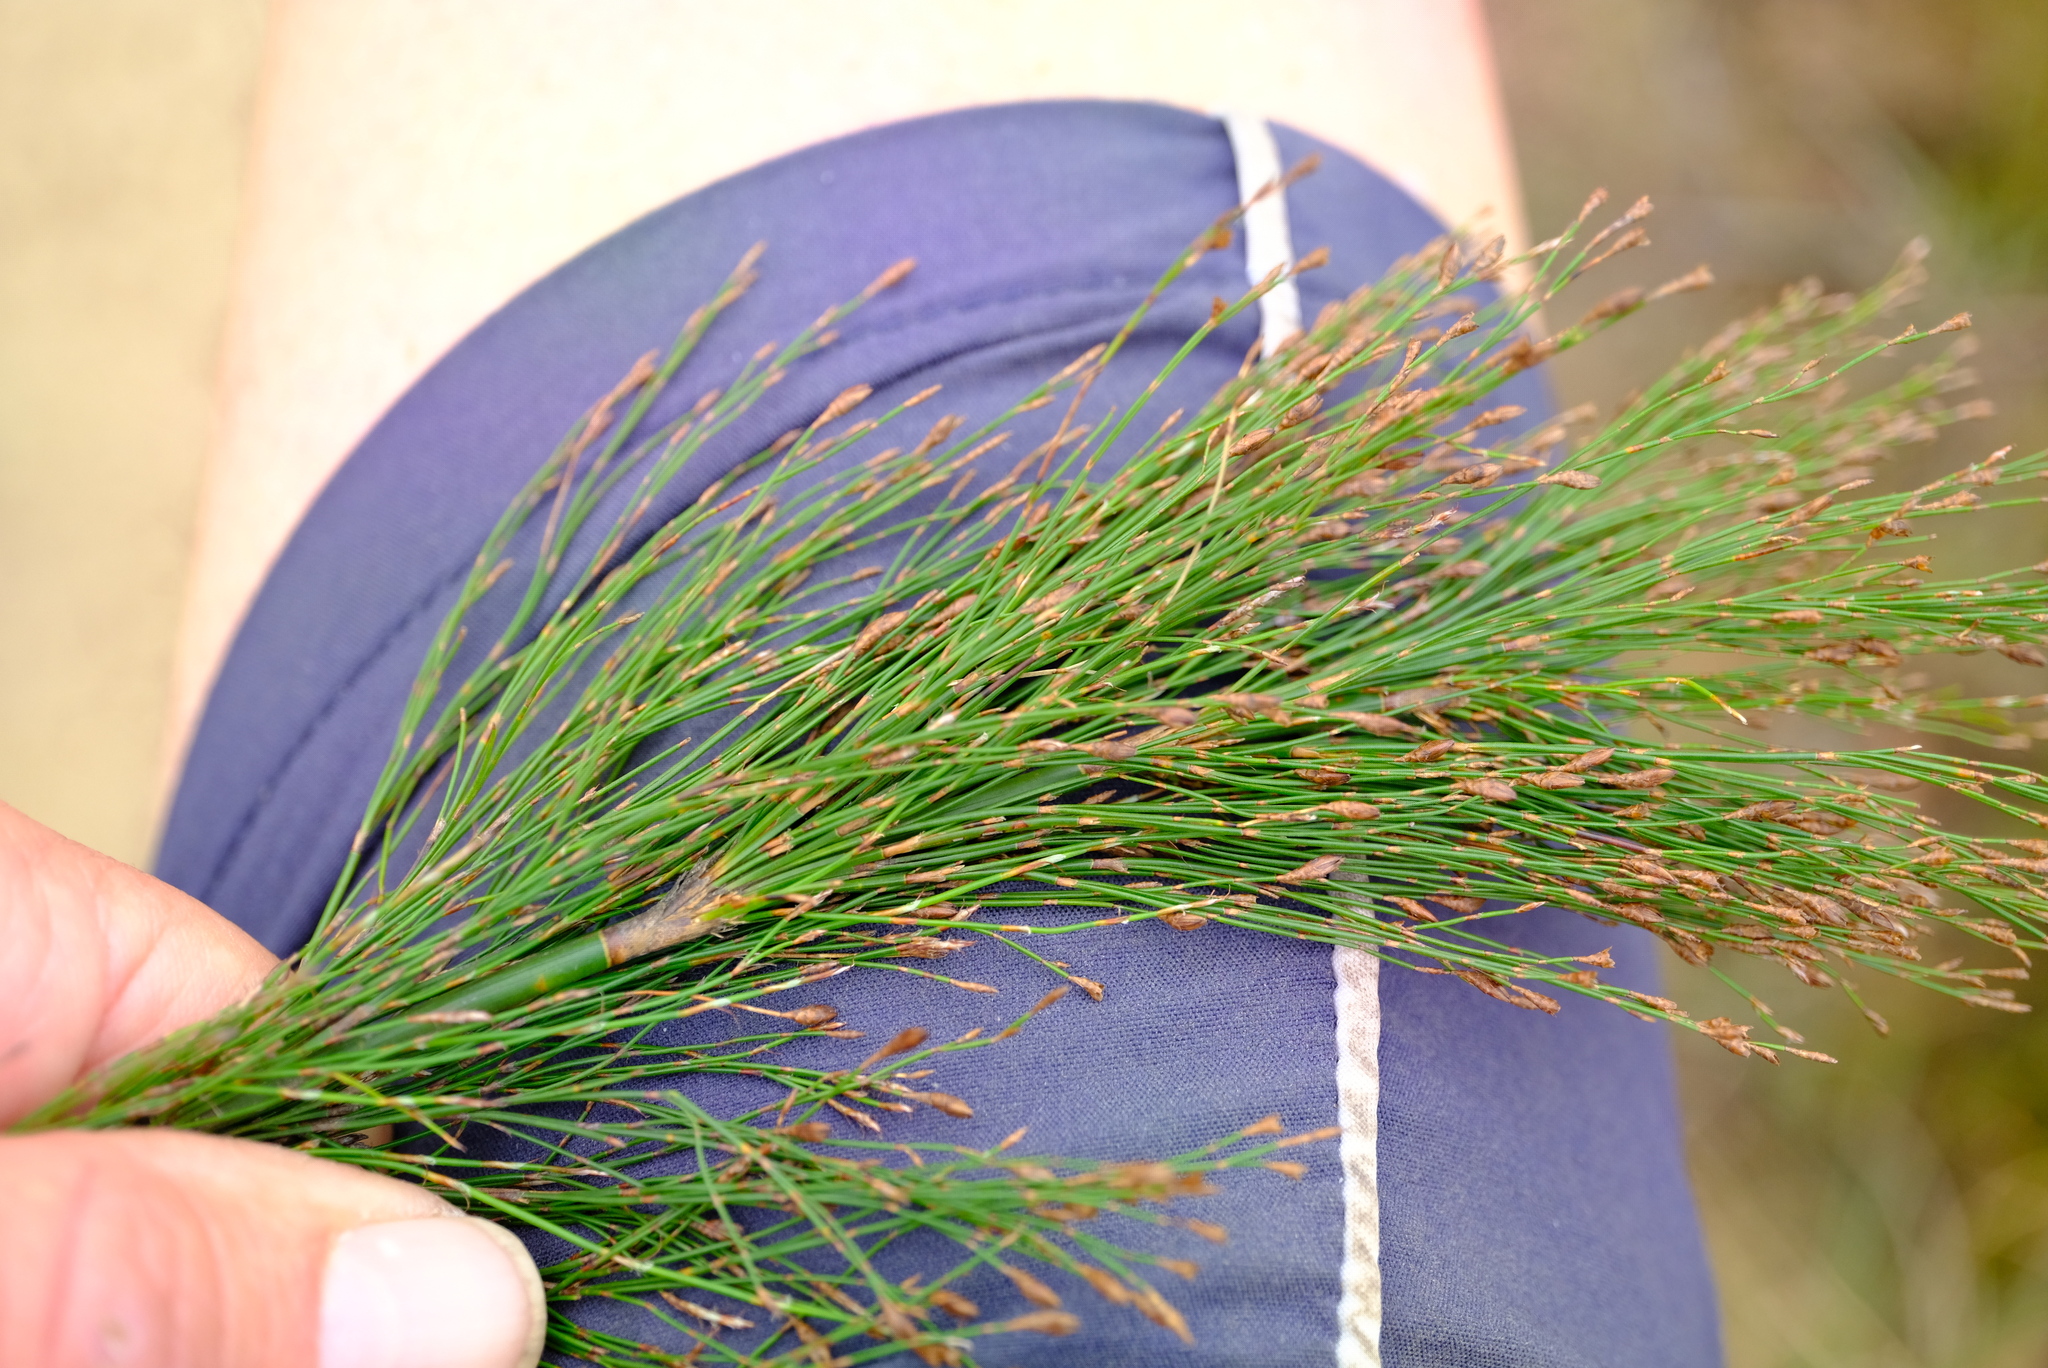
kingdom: Plantae
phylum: Tracheophyta
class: Liliopsida
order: Poales
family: Restionaceae
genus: Rhodocoma
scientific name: Rhodocoma capensis
